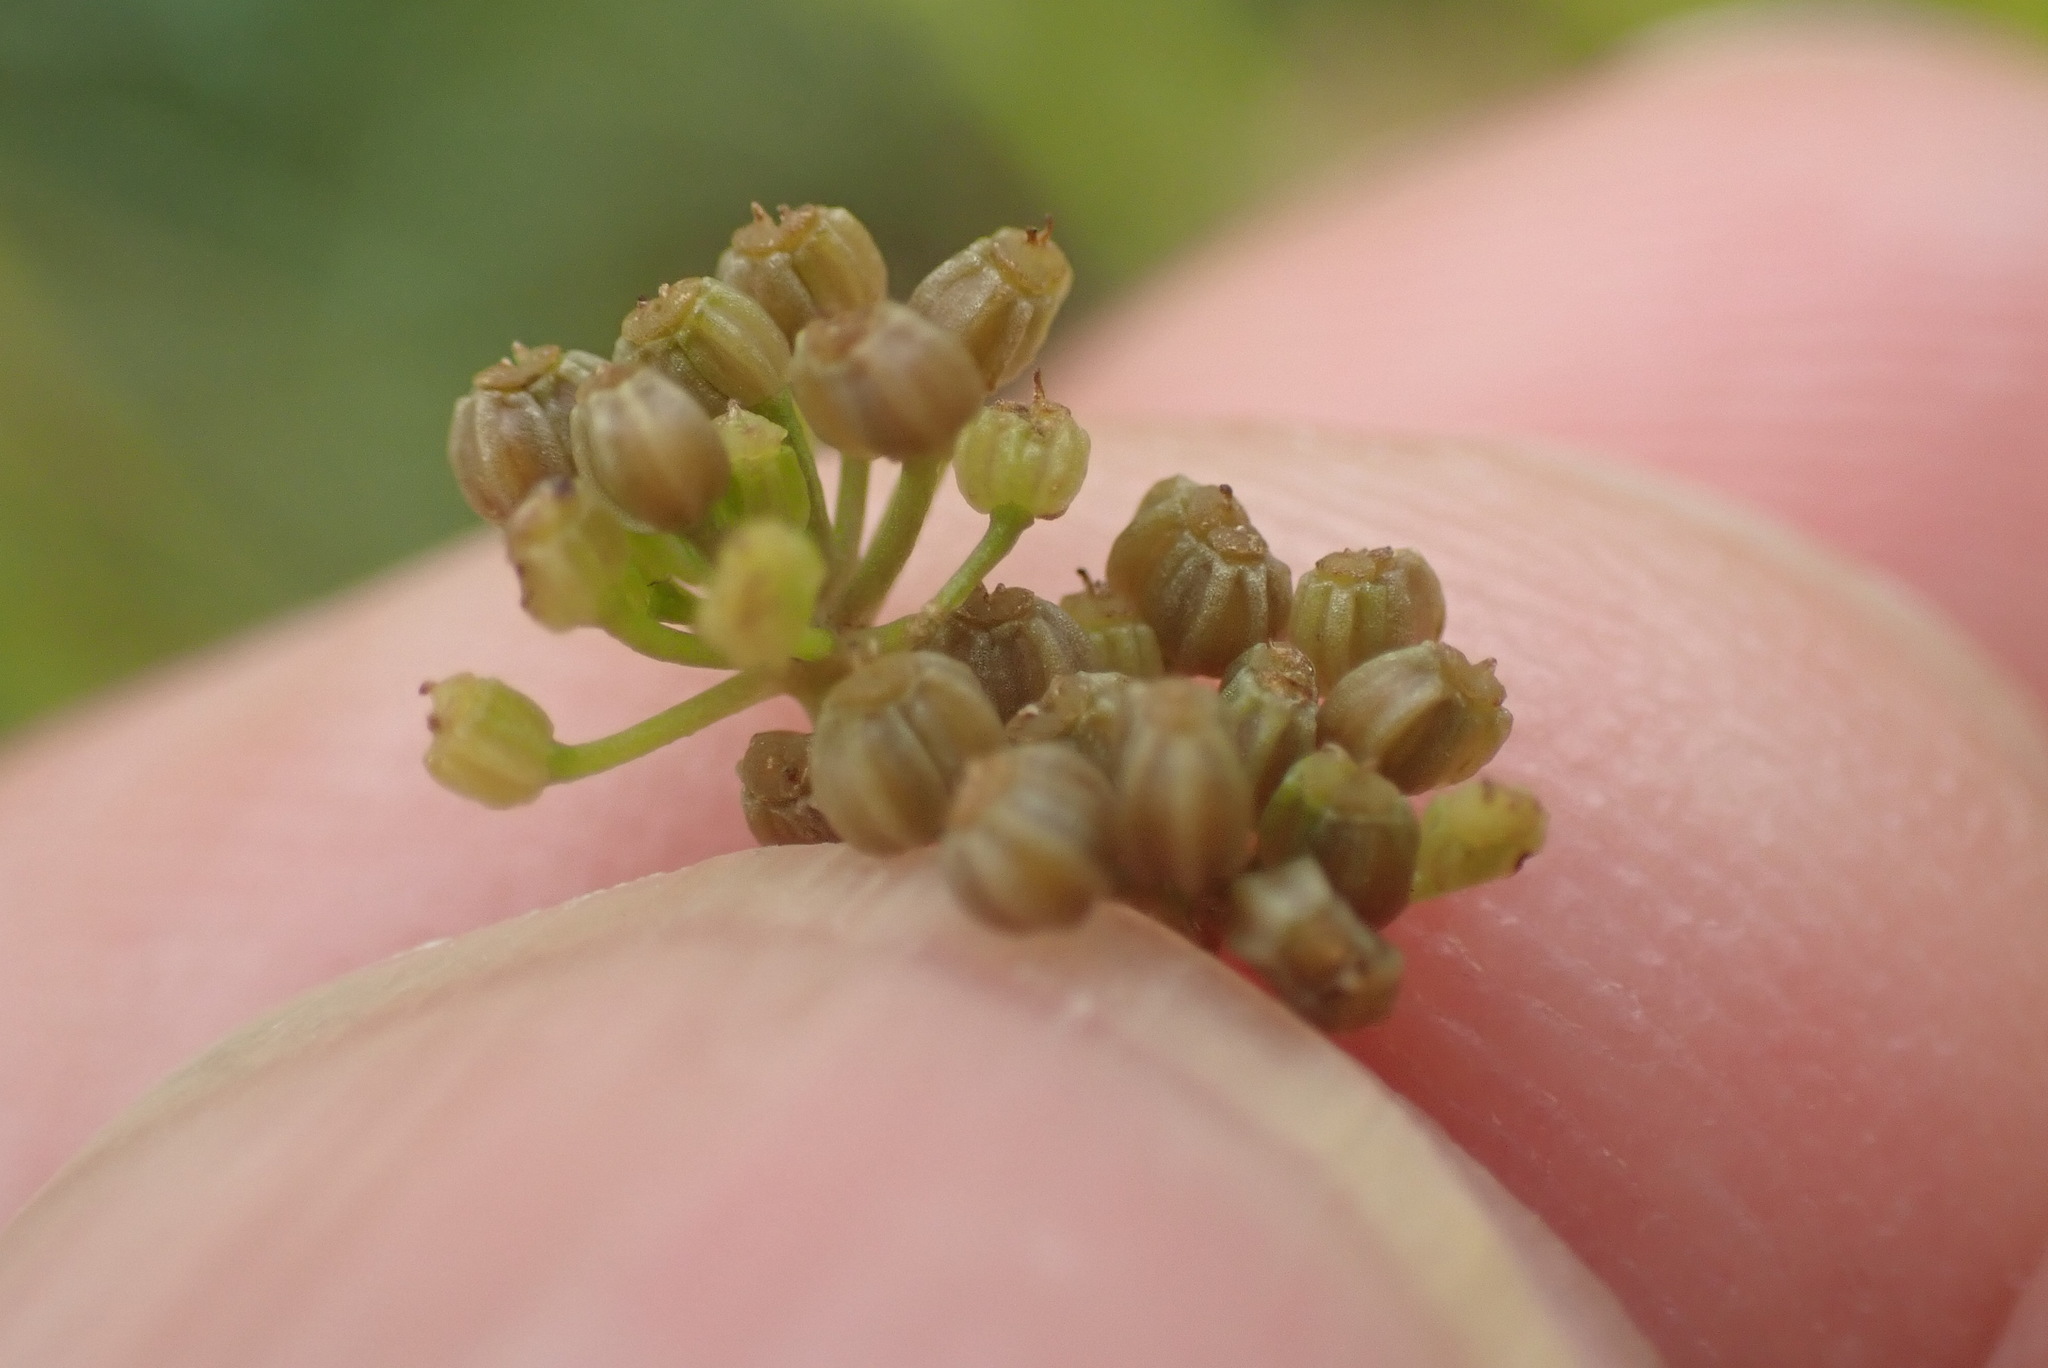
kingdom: Plantae
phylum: Tracheophyta
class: Magnoliopsida
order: Apiales
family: Apiaceae
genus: Apium
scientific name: Apium graveolens
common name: Wild celery
